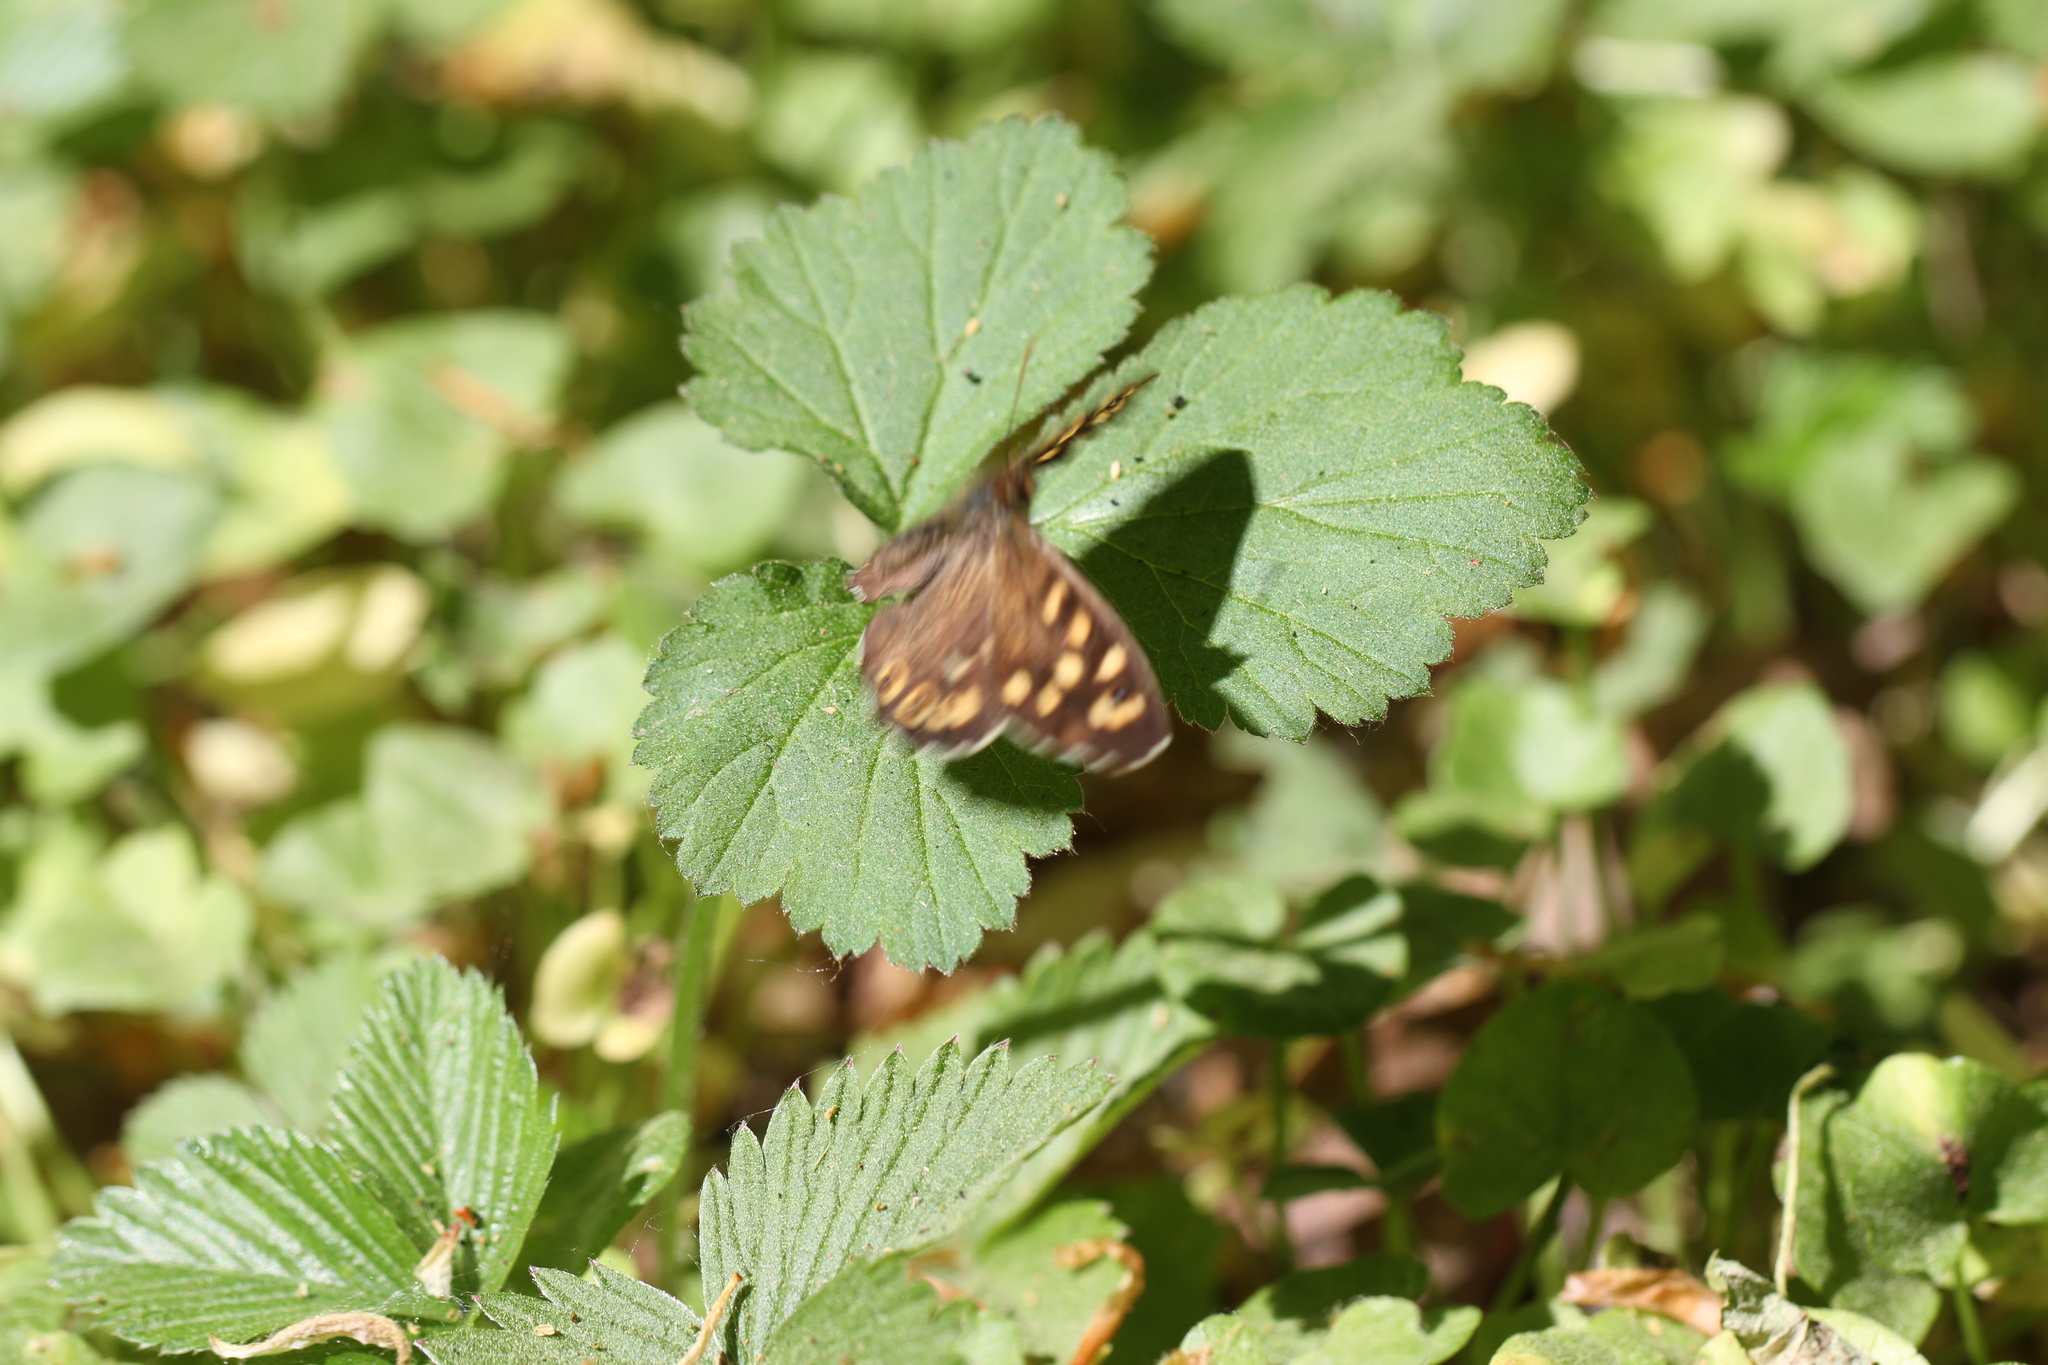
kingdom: Animalia
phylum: Arthropoda
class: Insecta
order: Lepidoptera
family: Nymphalidae
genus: Pararge
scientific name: Pararge aegeria
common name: Speckled wood
